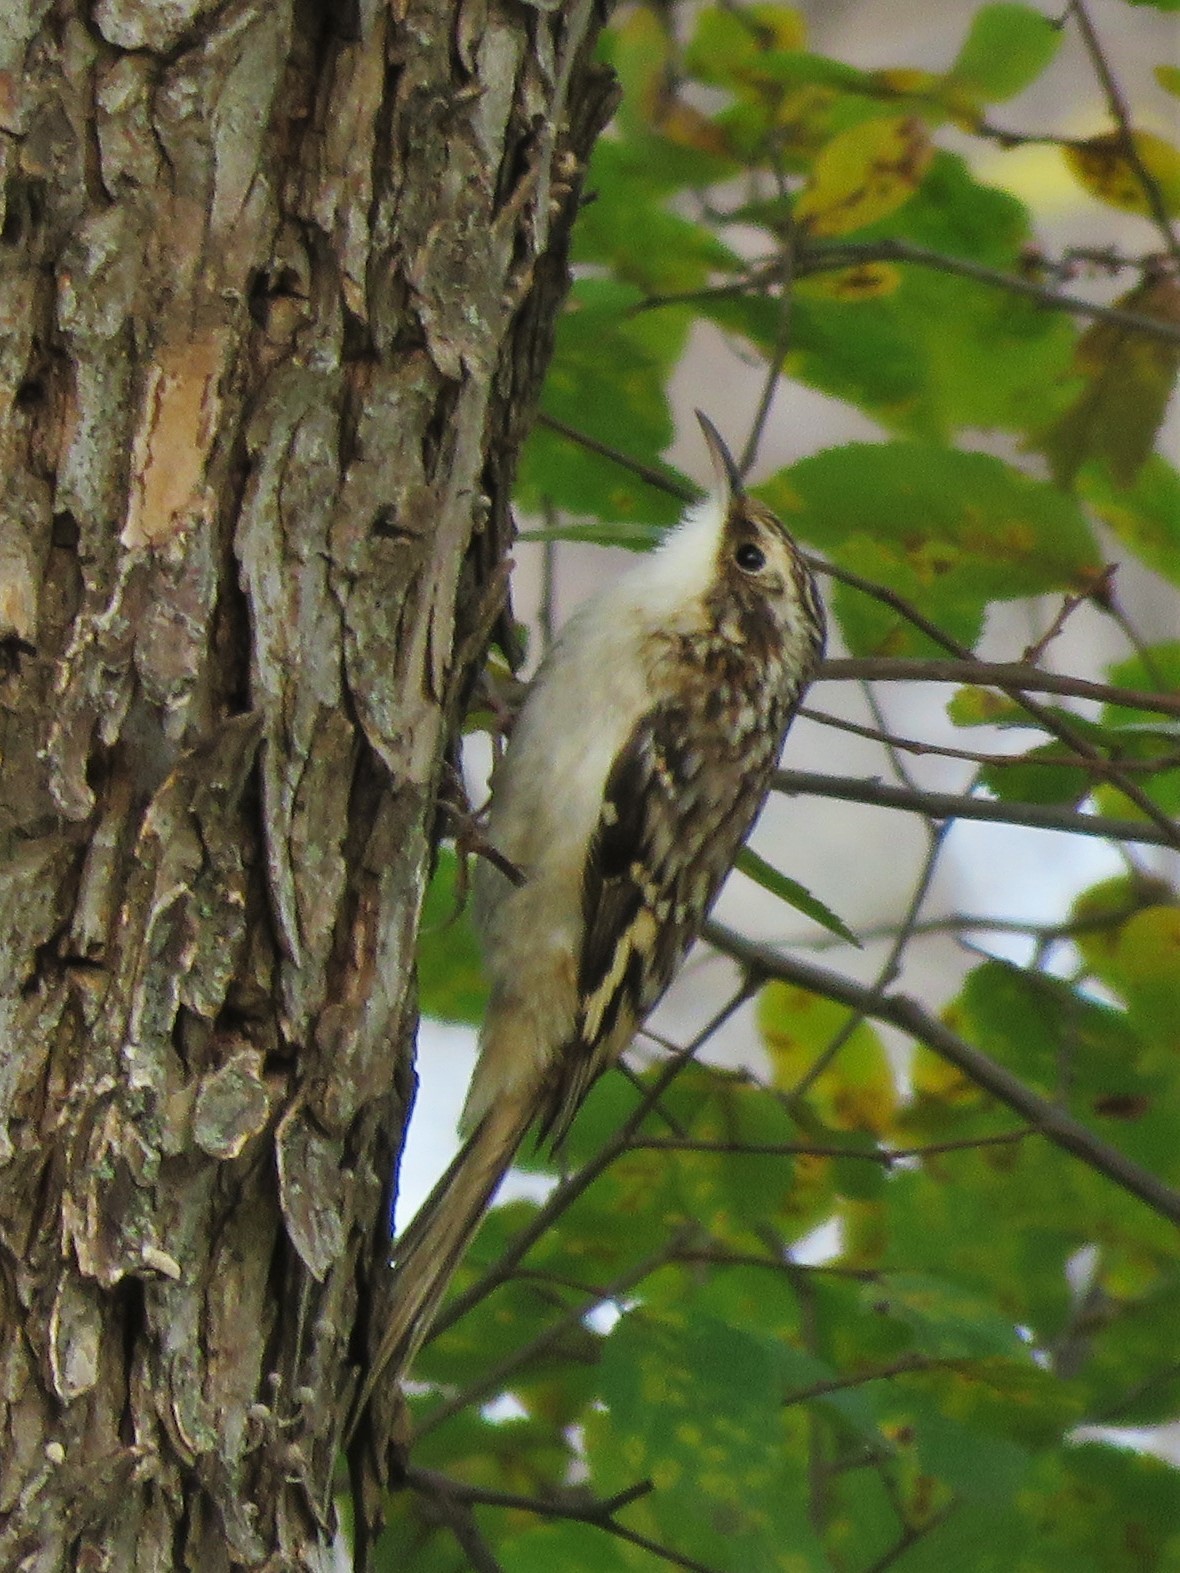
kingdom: Animalia
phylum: Chordata
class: Aves
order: Passeriformes
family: Certhiidae
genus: Certhia
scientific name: Certhia americana
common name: Brown creeper
